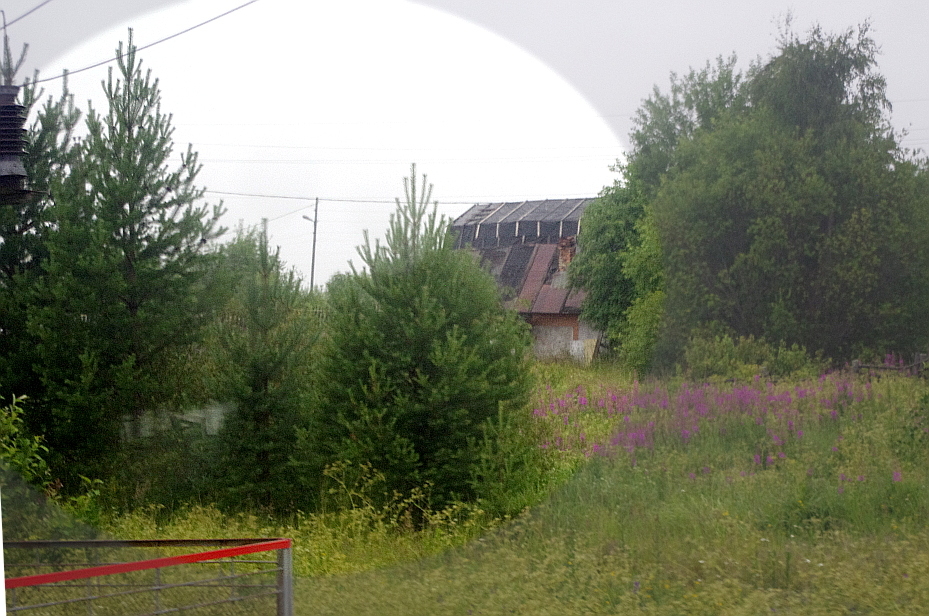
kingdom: Plantae
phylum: Tracheophyta
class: Pinopsida
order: Pinales
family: Pinaceae
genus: Pinus
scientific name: Pinus sylvestris
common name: Scots pine
